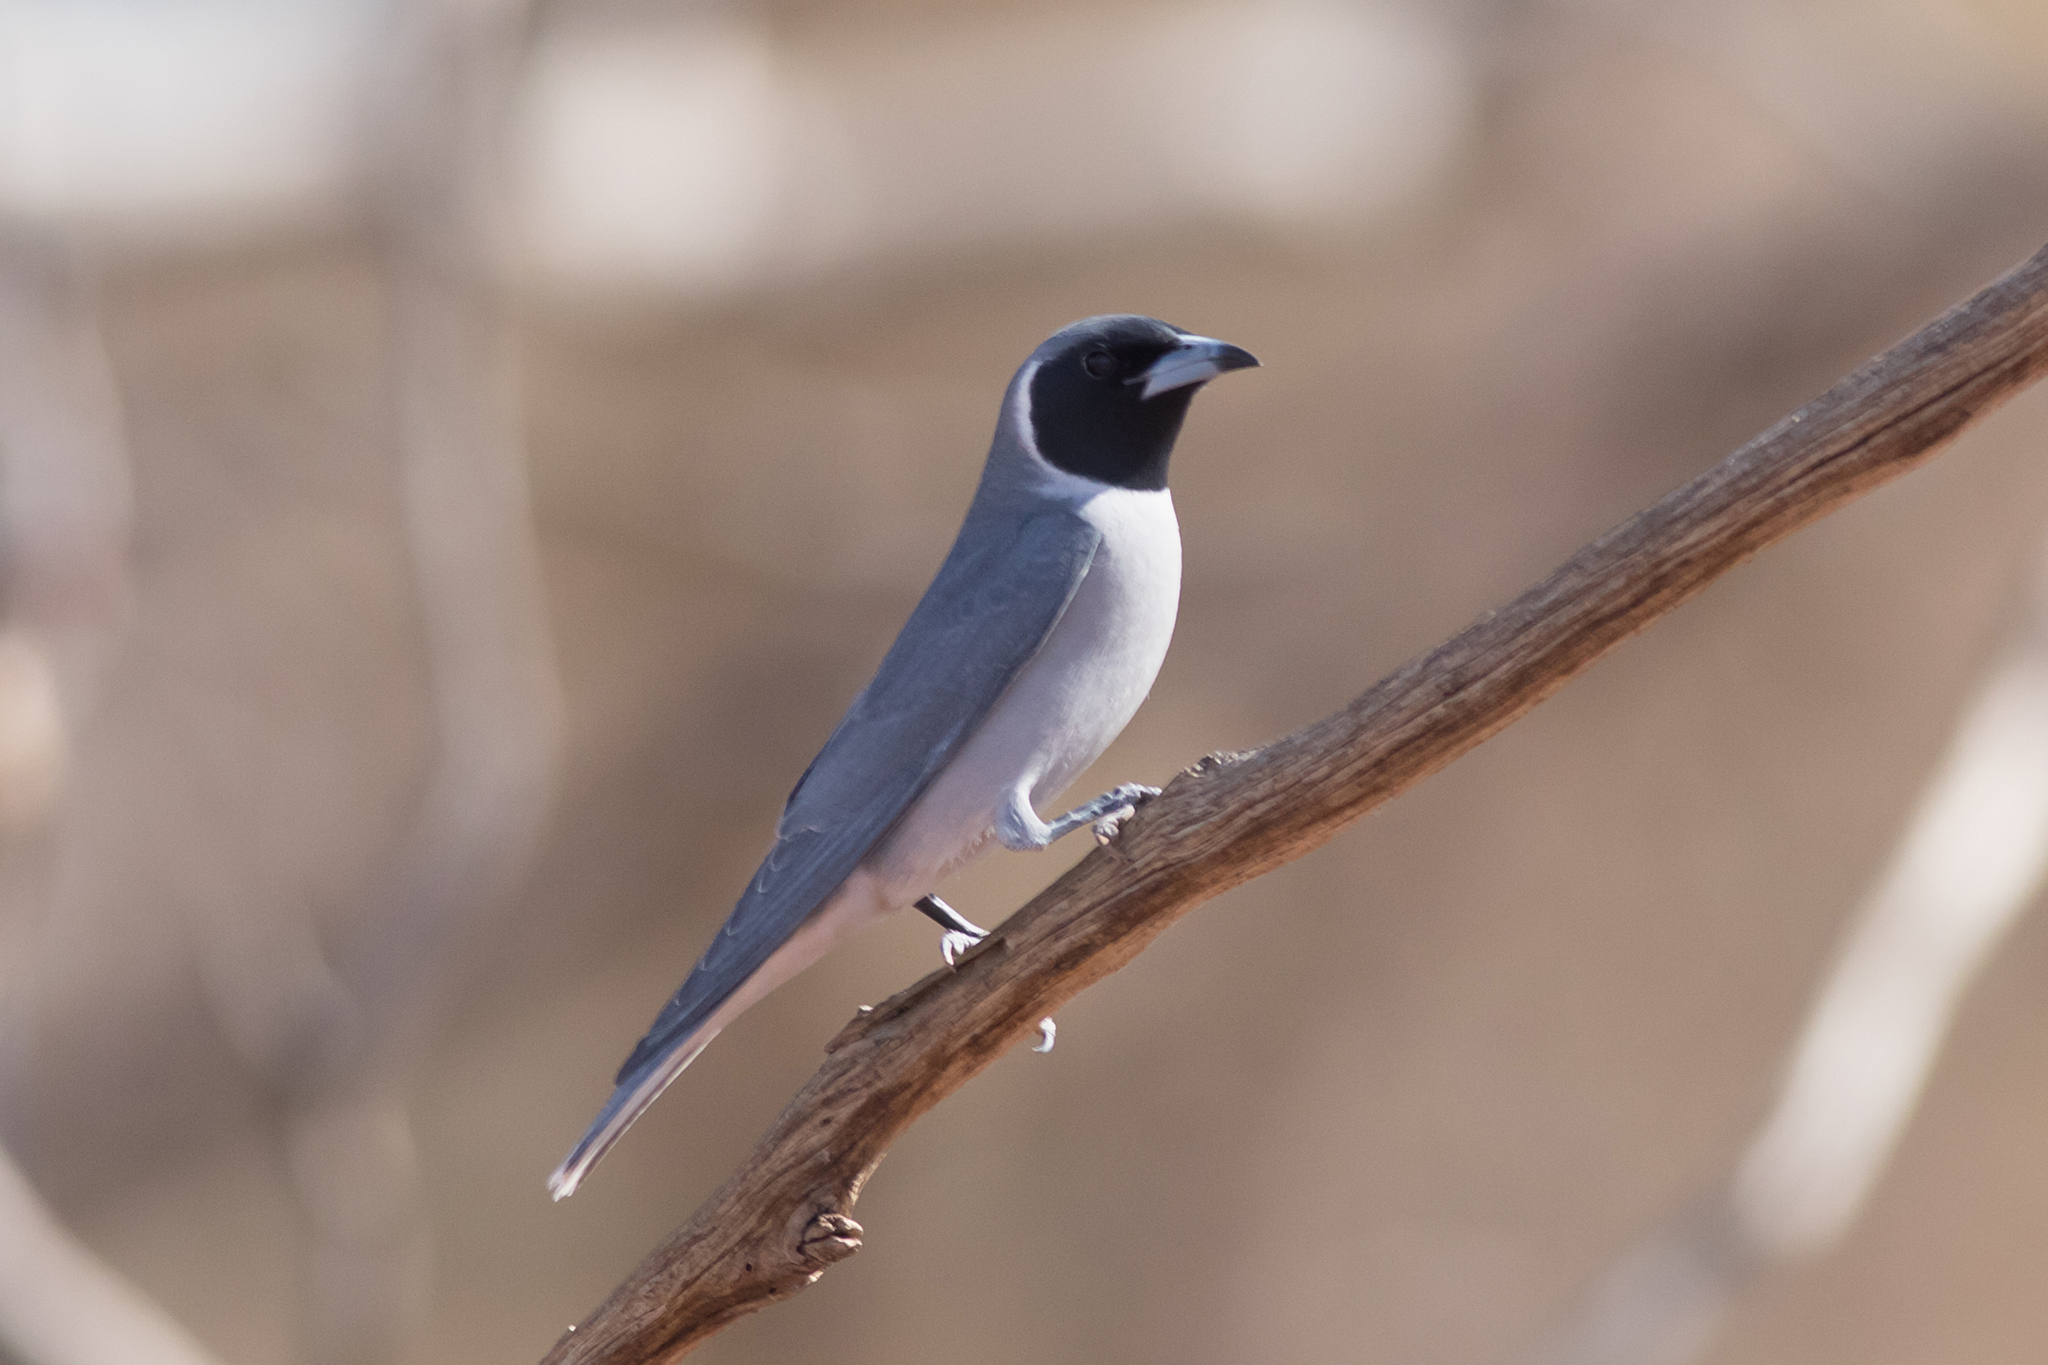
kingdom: Animalia
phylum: Chordata
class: Aves
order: Passeriformes
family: Artamidae
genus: Artamus
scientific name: Artamus personatus
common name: Masked woodswallow
